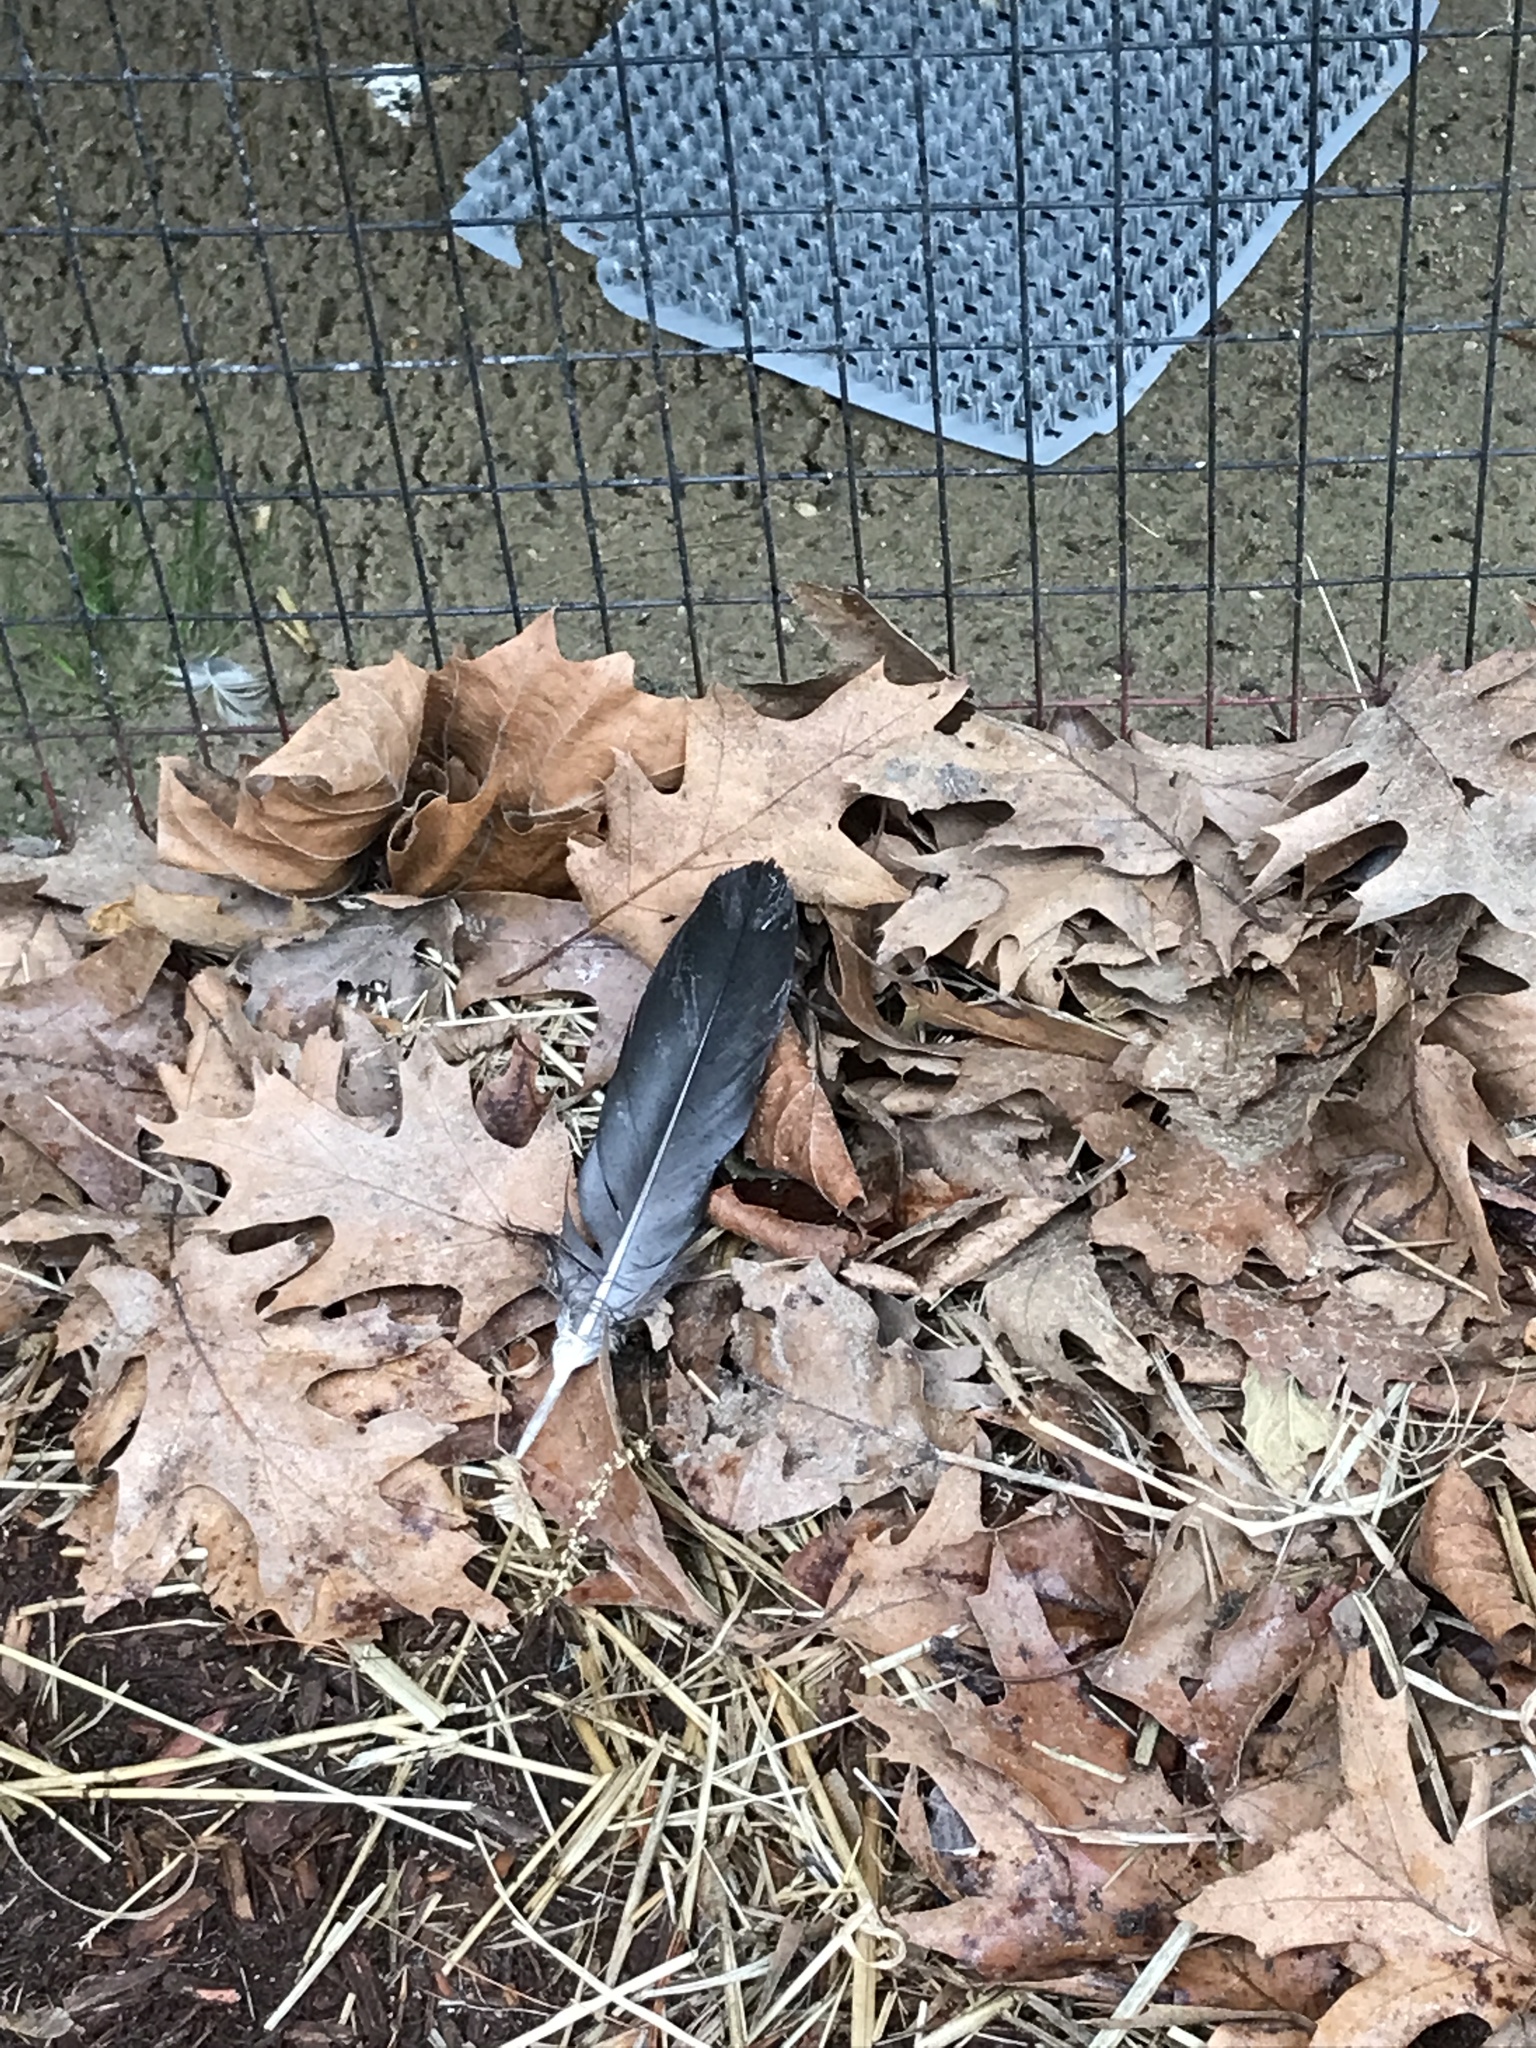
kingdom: Animalia
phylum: Chordata
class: Aves
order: Accipitriformes
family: Cathartidae
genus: Coragyps
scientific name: Coragyps atratus
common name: Black vulture
